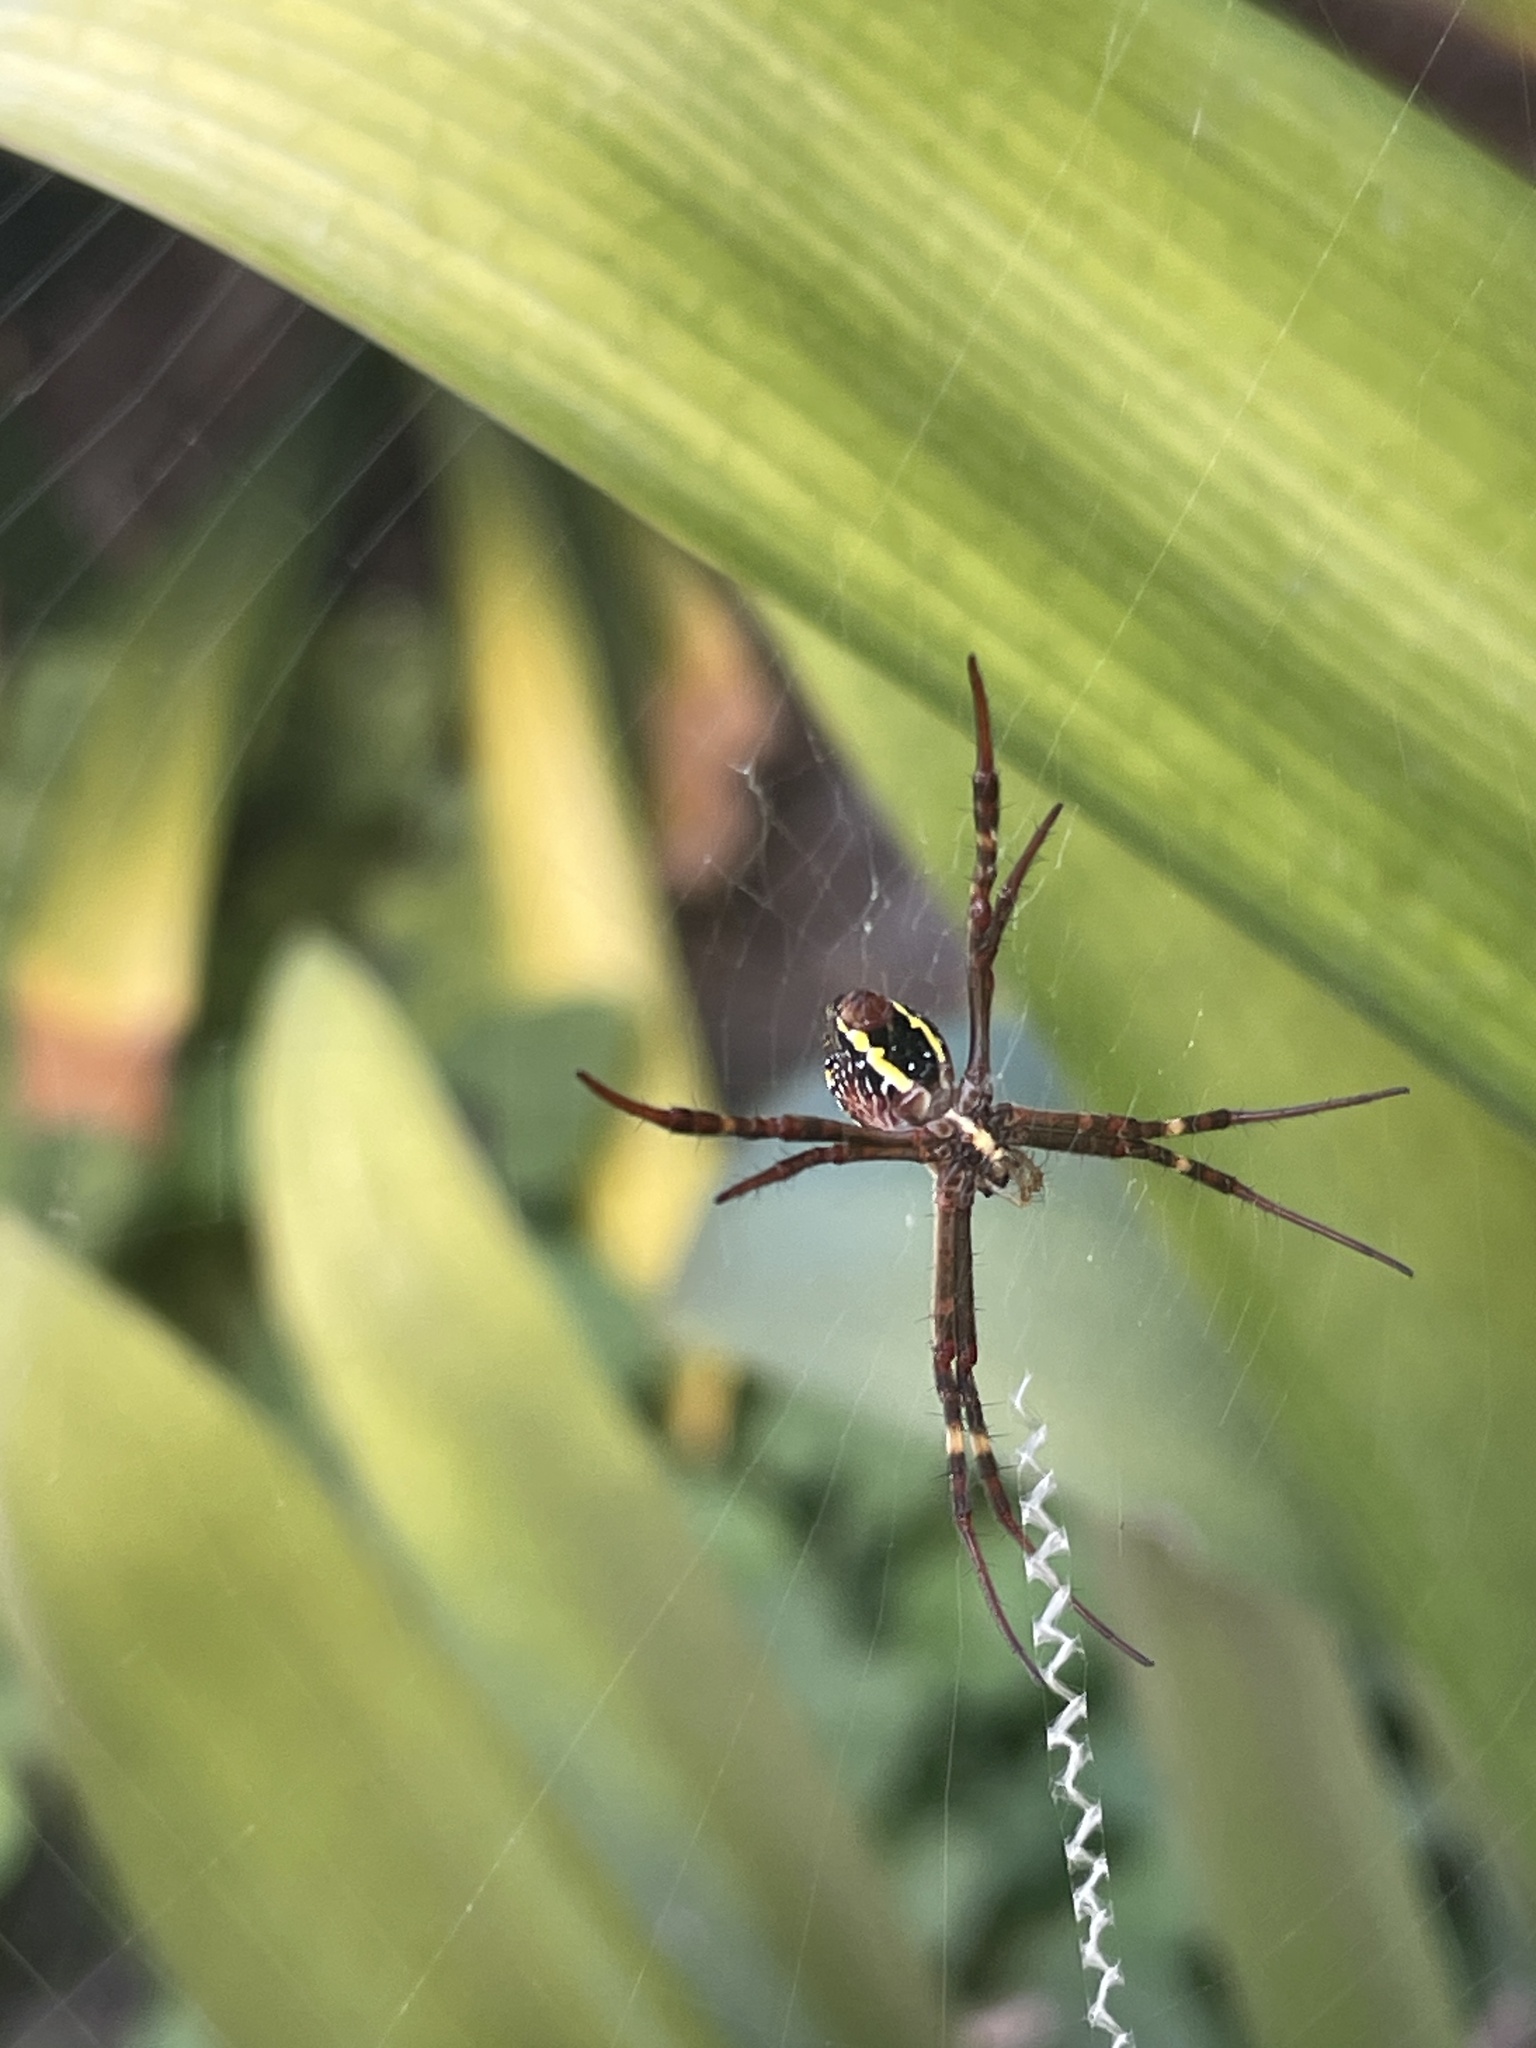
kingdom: Animalia
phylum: Arthropoda
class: Arachnida
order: Araneae
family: Araneidae
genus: Argiope
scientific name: Argiope keyserlingi
